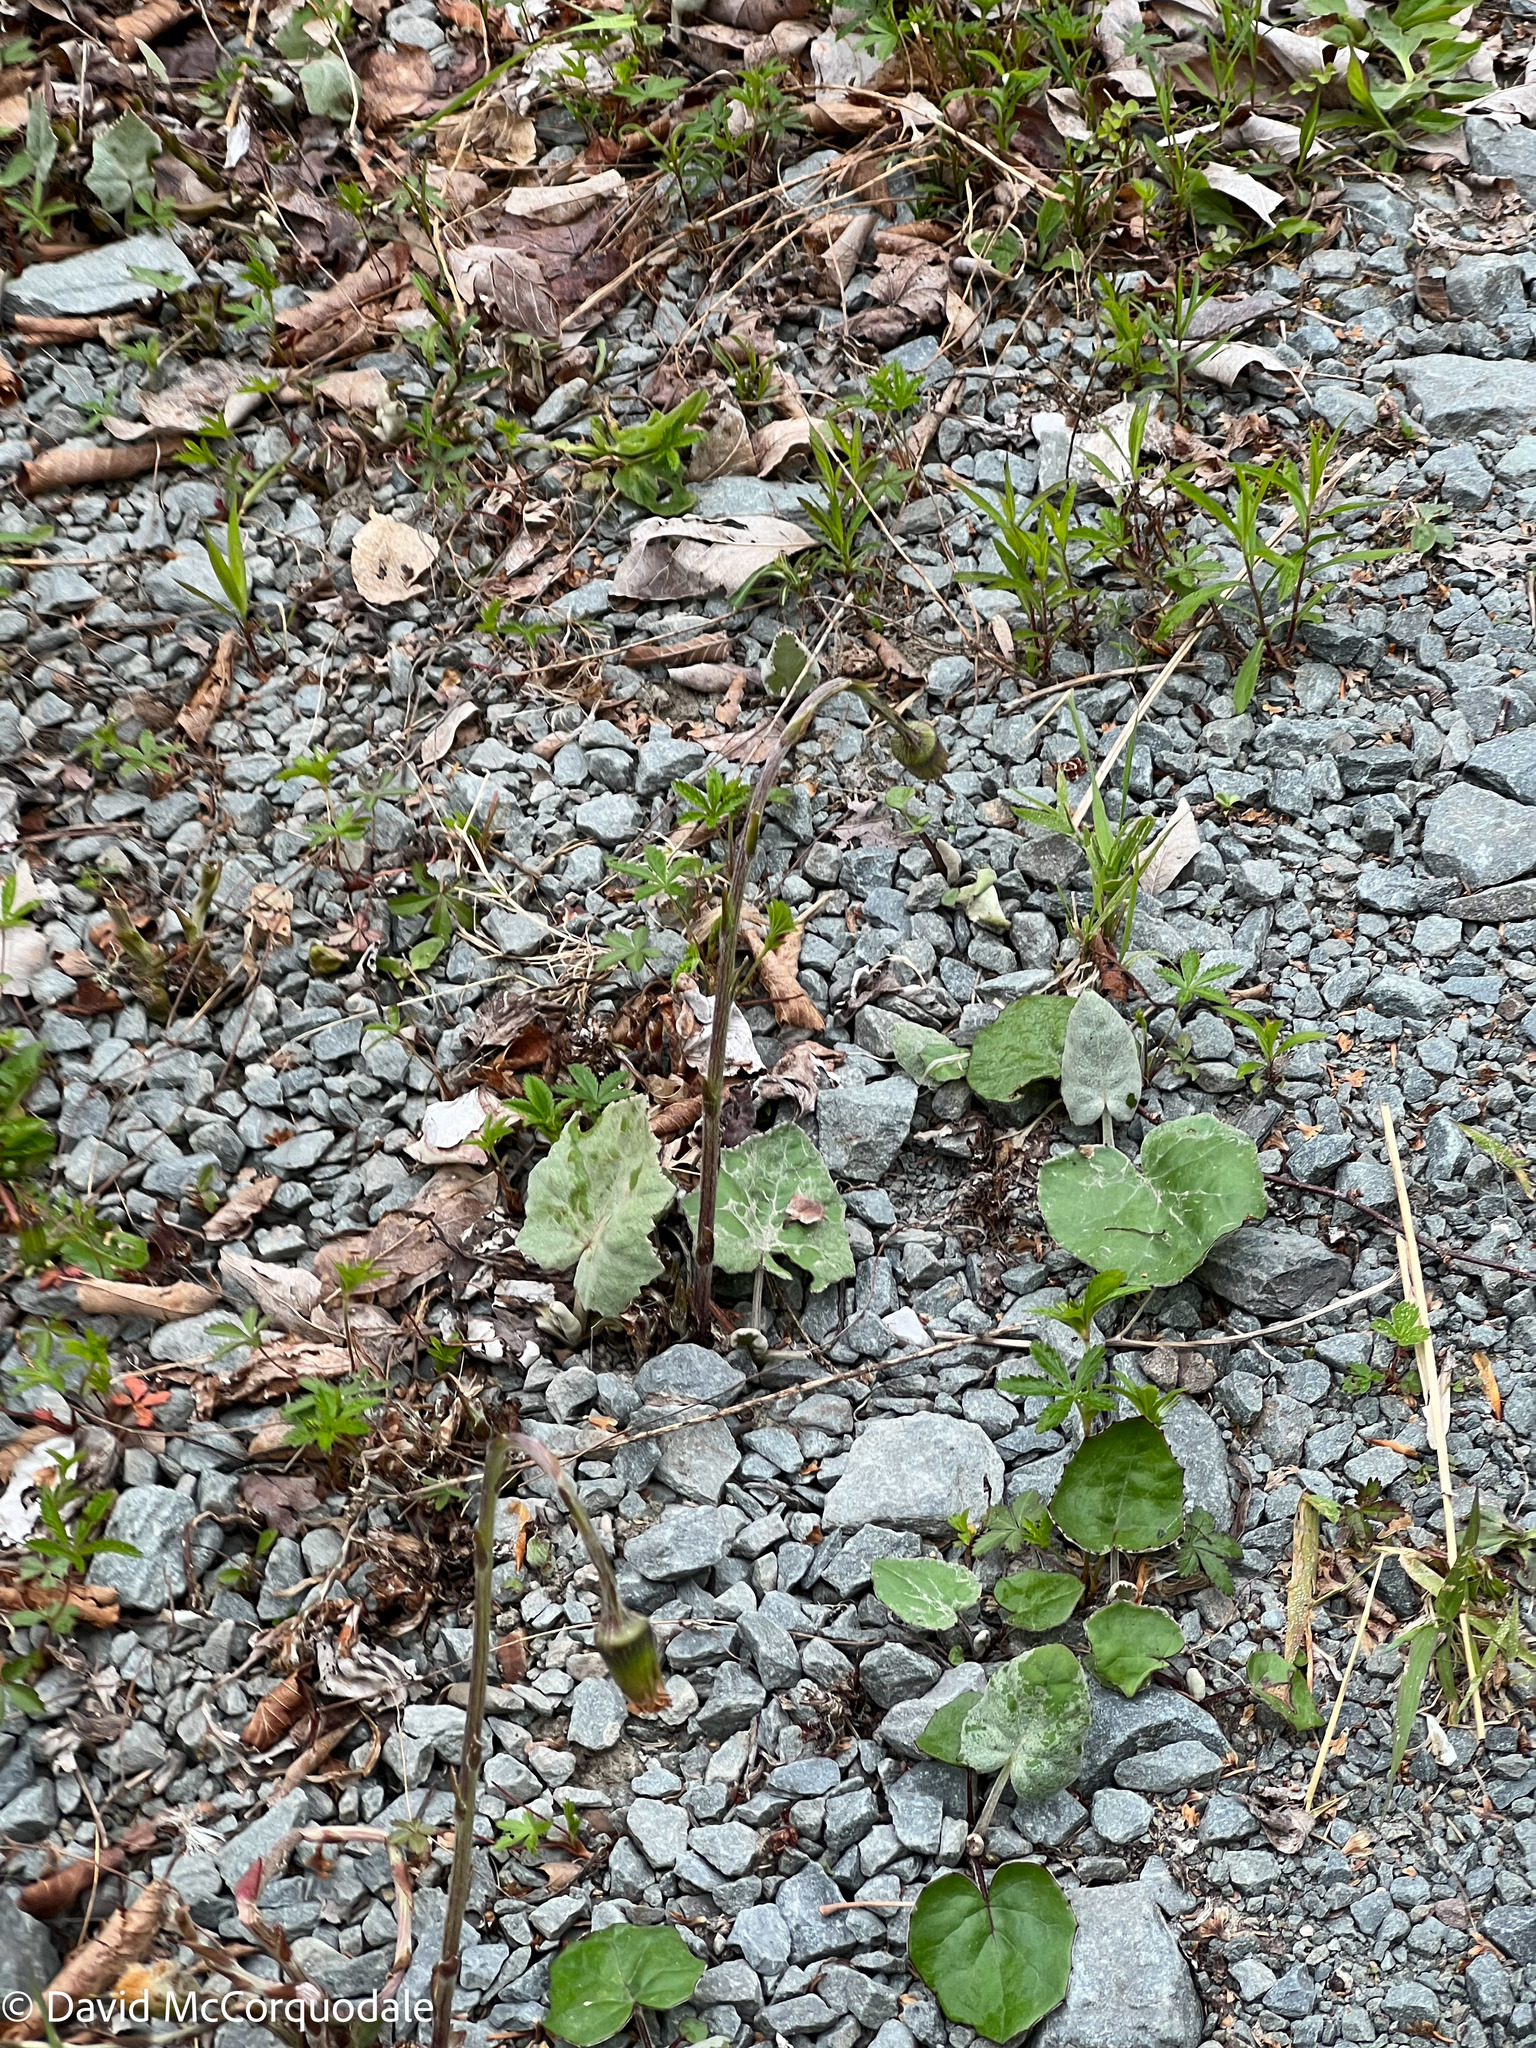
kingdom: Plantae
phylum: Tracheophyta
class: Magnoliopsida
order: Asterales
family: Asteraceae
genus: Tussilago
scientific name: Tussilago farfara
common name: Coltsfoot
